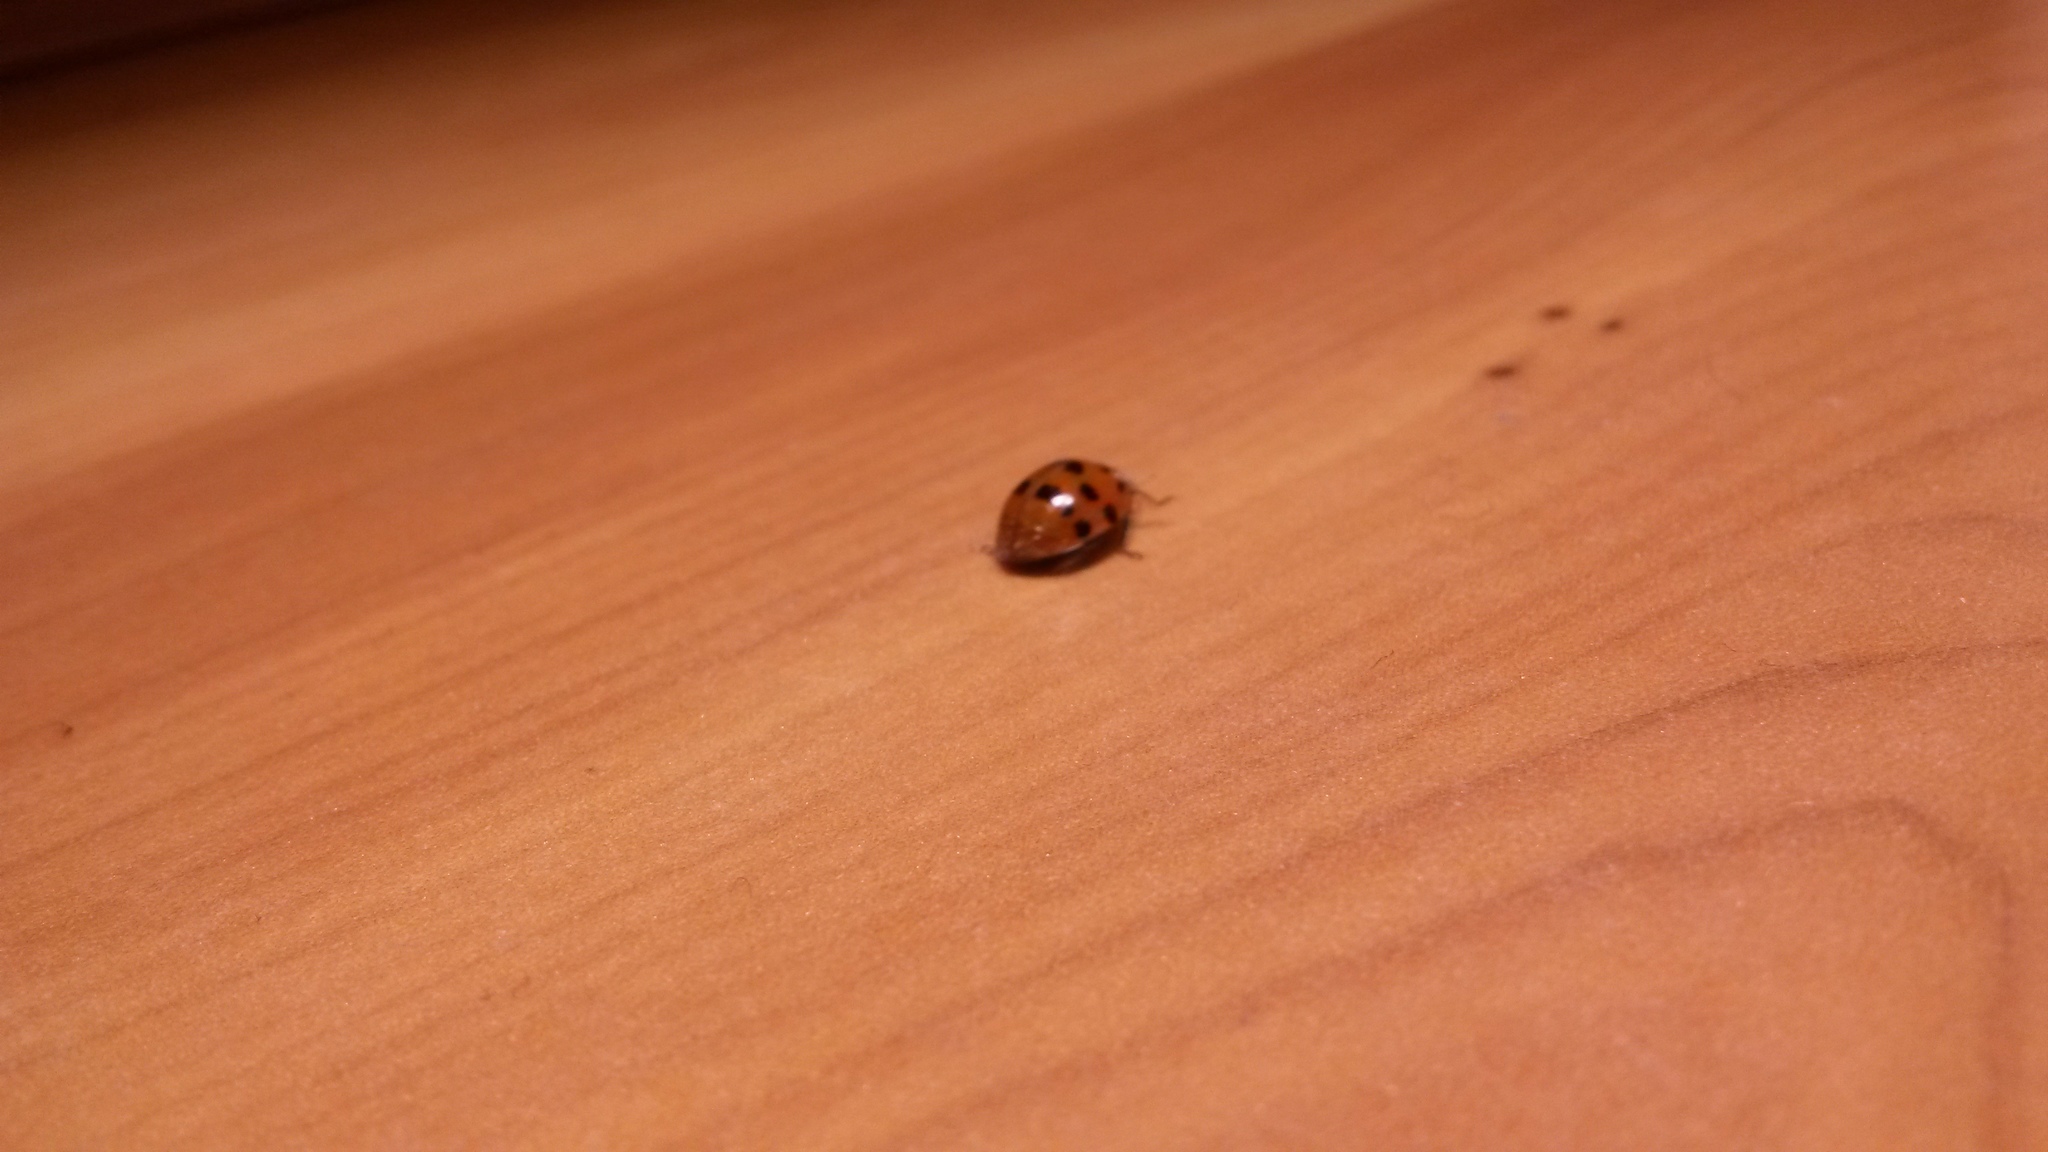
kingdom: Animalia
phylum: Arthropoda
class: Insecta
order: Coleoptera
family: Coccinellidae
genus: Harmonia
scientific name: Harmonia axyridis
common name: Harlequin ladybird
